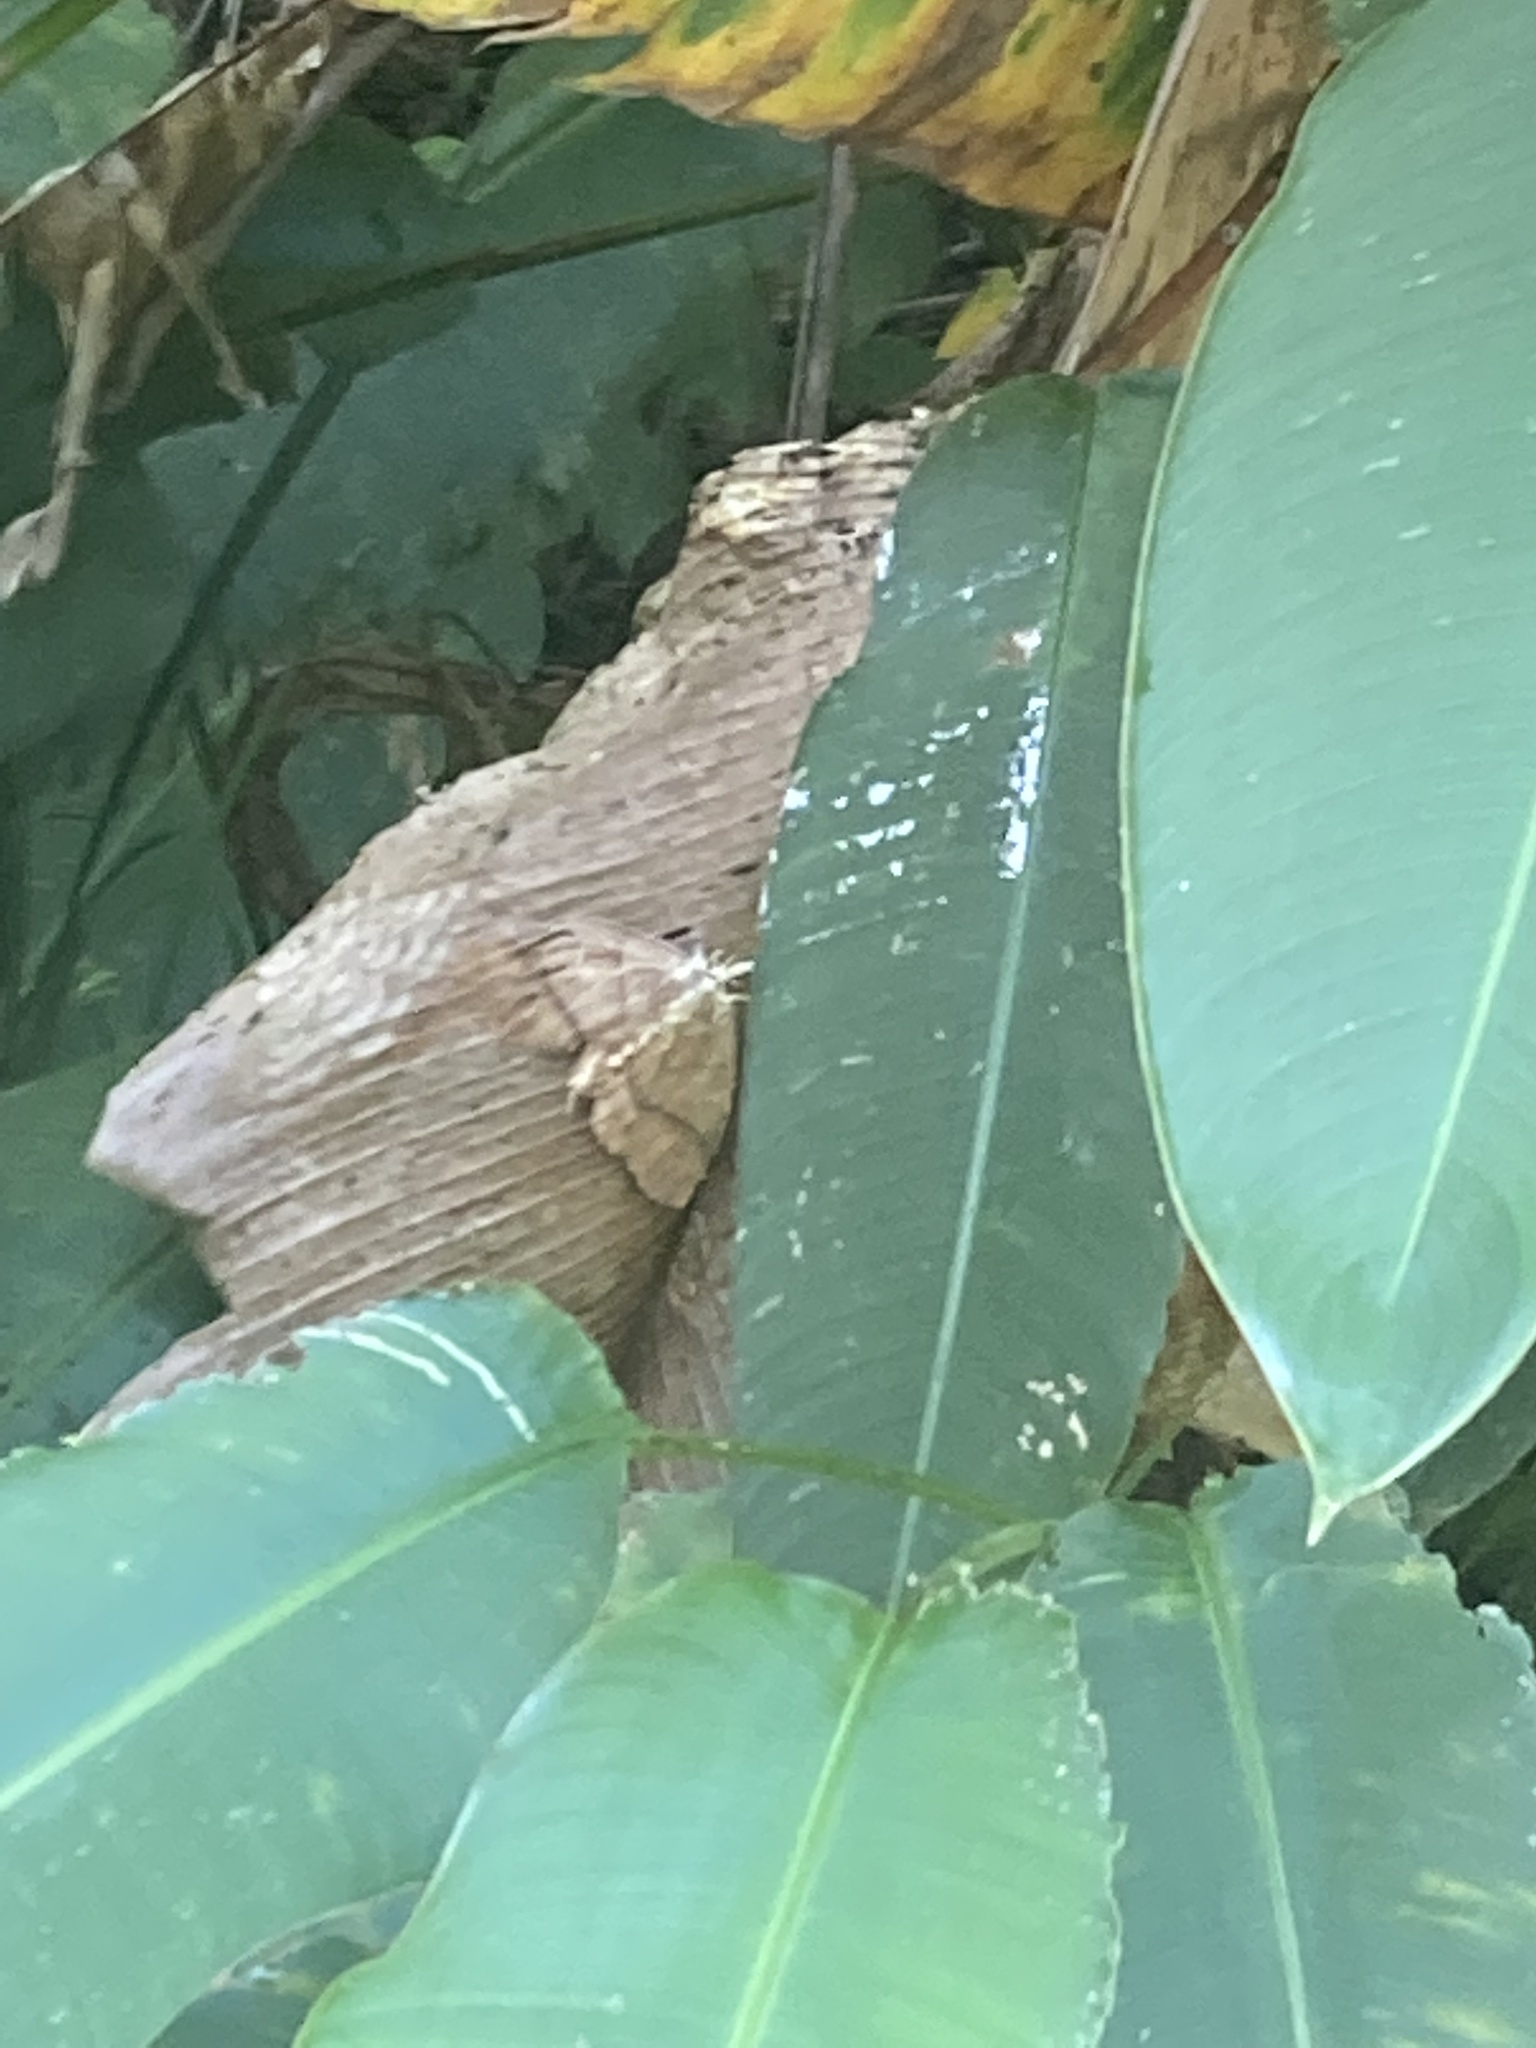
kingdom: Animalia
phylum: Arthropoda
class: Insecta
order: Lepidoptera
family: Saturniidae
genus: Periphoba
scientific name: Periphoba arcaei
